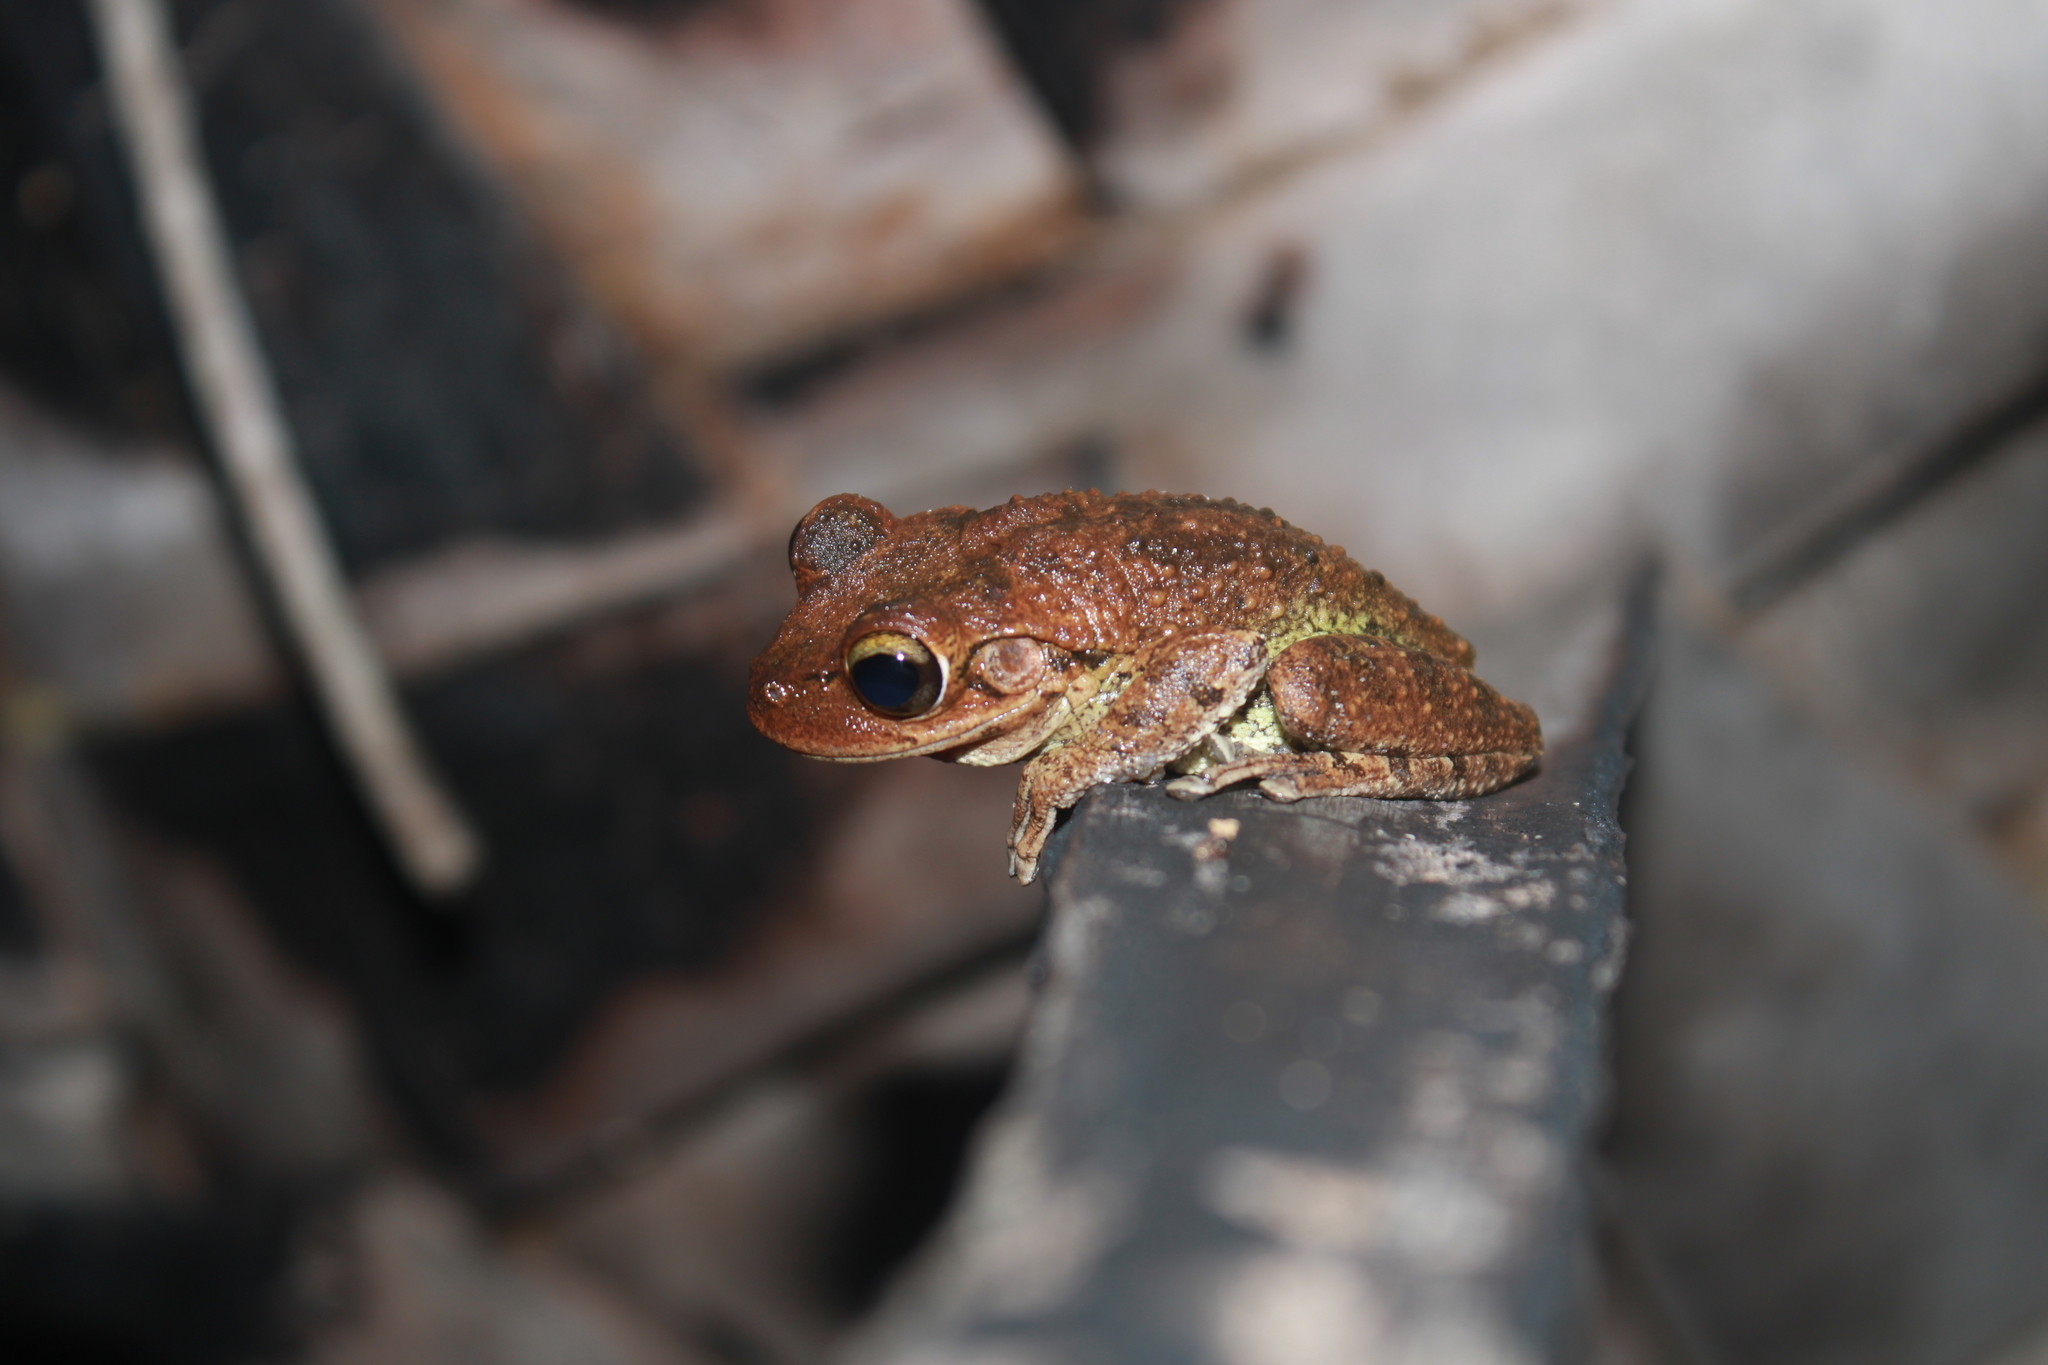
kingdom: Animalia
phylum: Chordata
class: Amphibia
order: Anura
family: Hylidae
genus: Osteopilus
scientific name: Osteopilus septentrionalis
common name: Cuban treefrog
